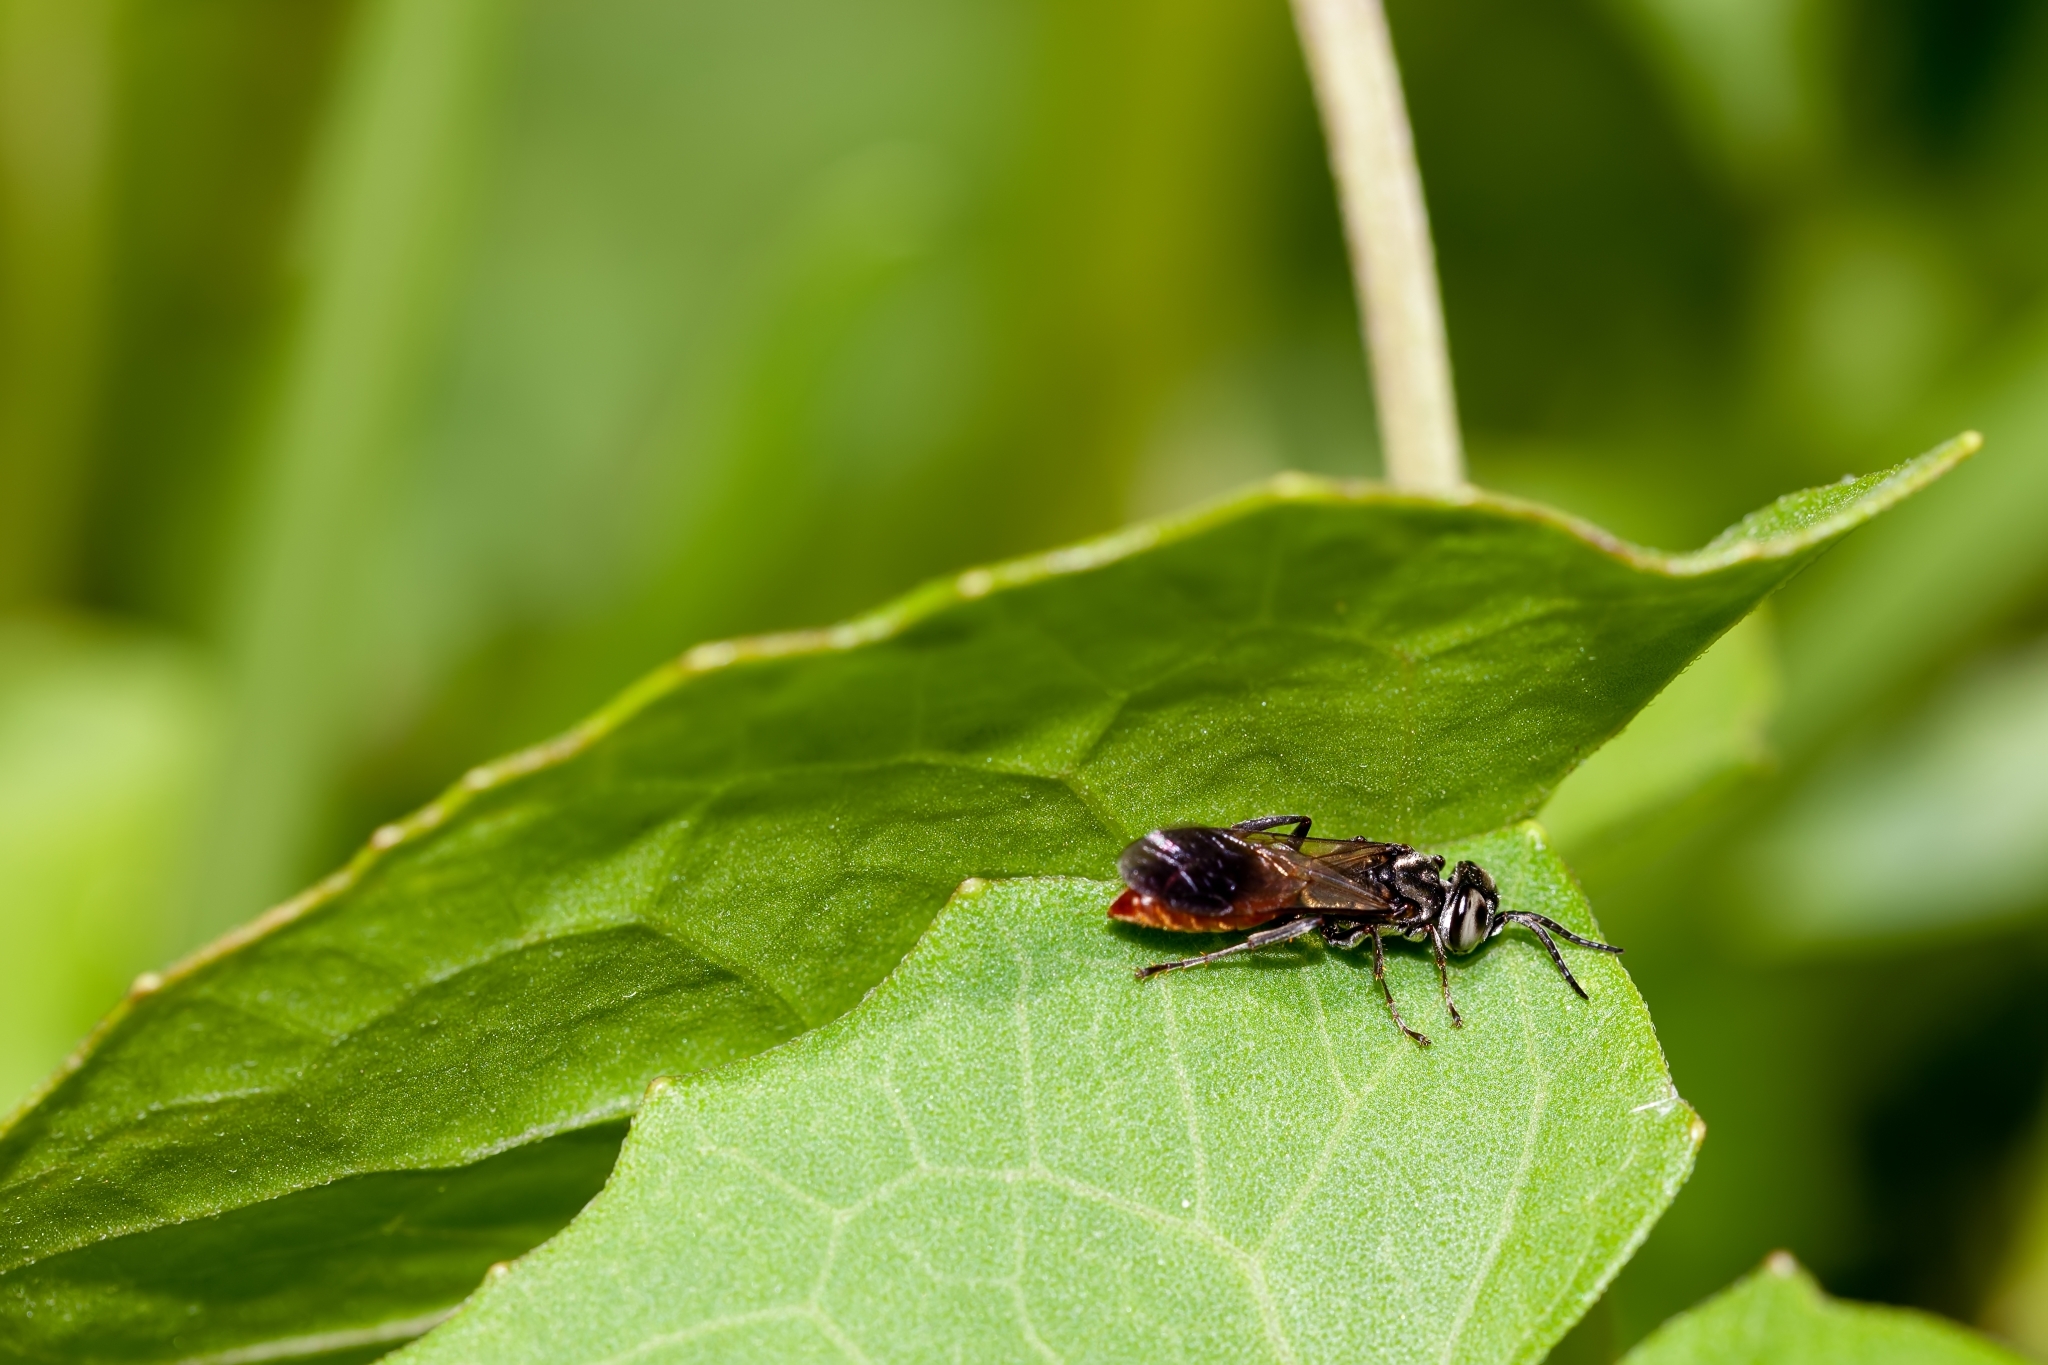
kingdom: Animalia
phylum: Arthropoda
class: Insecta
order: Hymenoptera
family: Crabronidae
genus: Larra
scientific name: Larra bicolor
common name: Wasp
